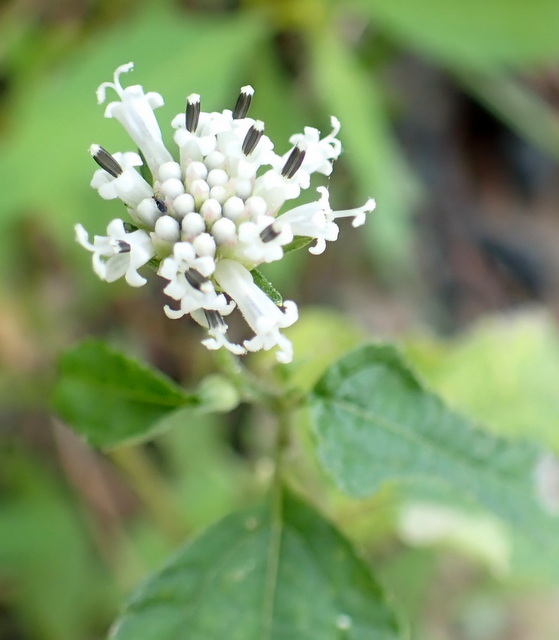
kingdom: Plantae
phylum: Tracheophyta
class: Magnoliopsida
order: Asterales
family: Asteraceae
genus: Melanthera
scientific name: Melanthera nivea
